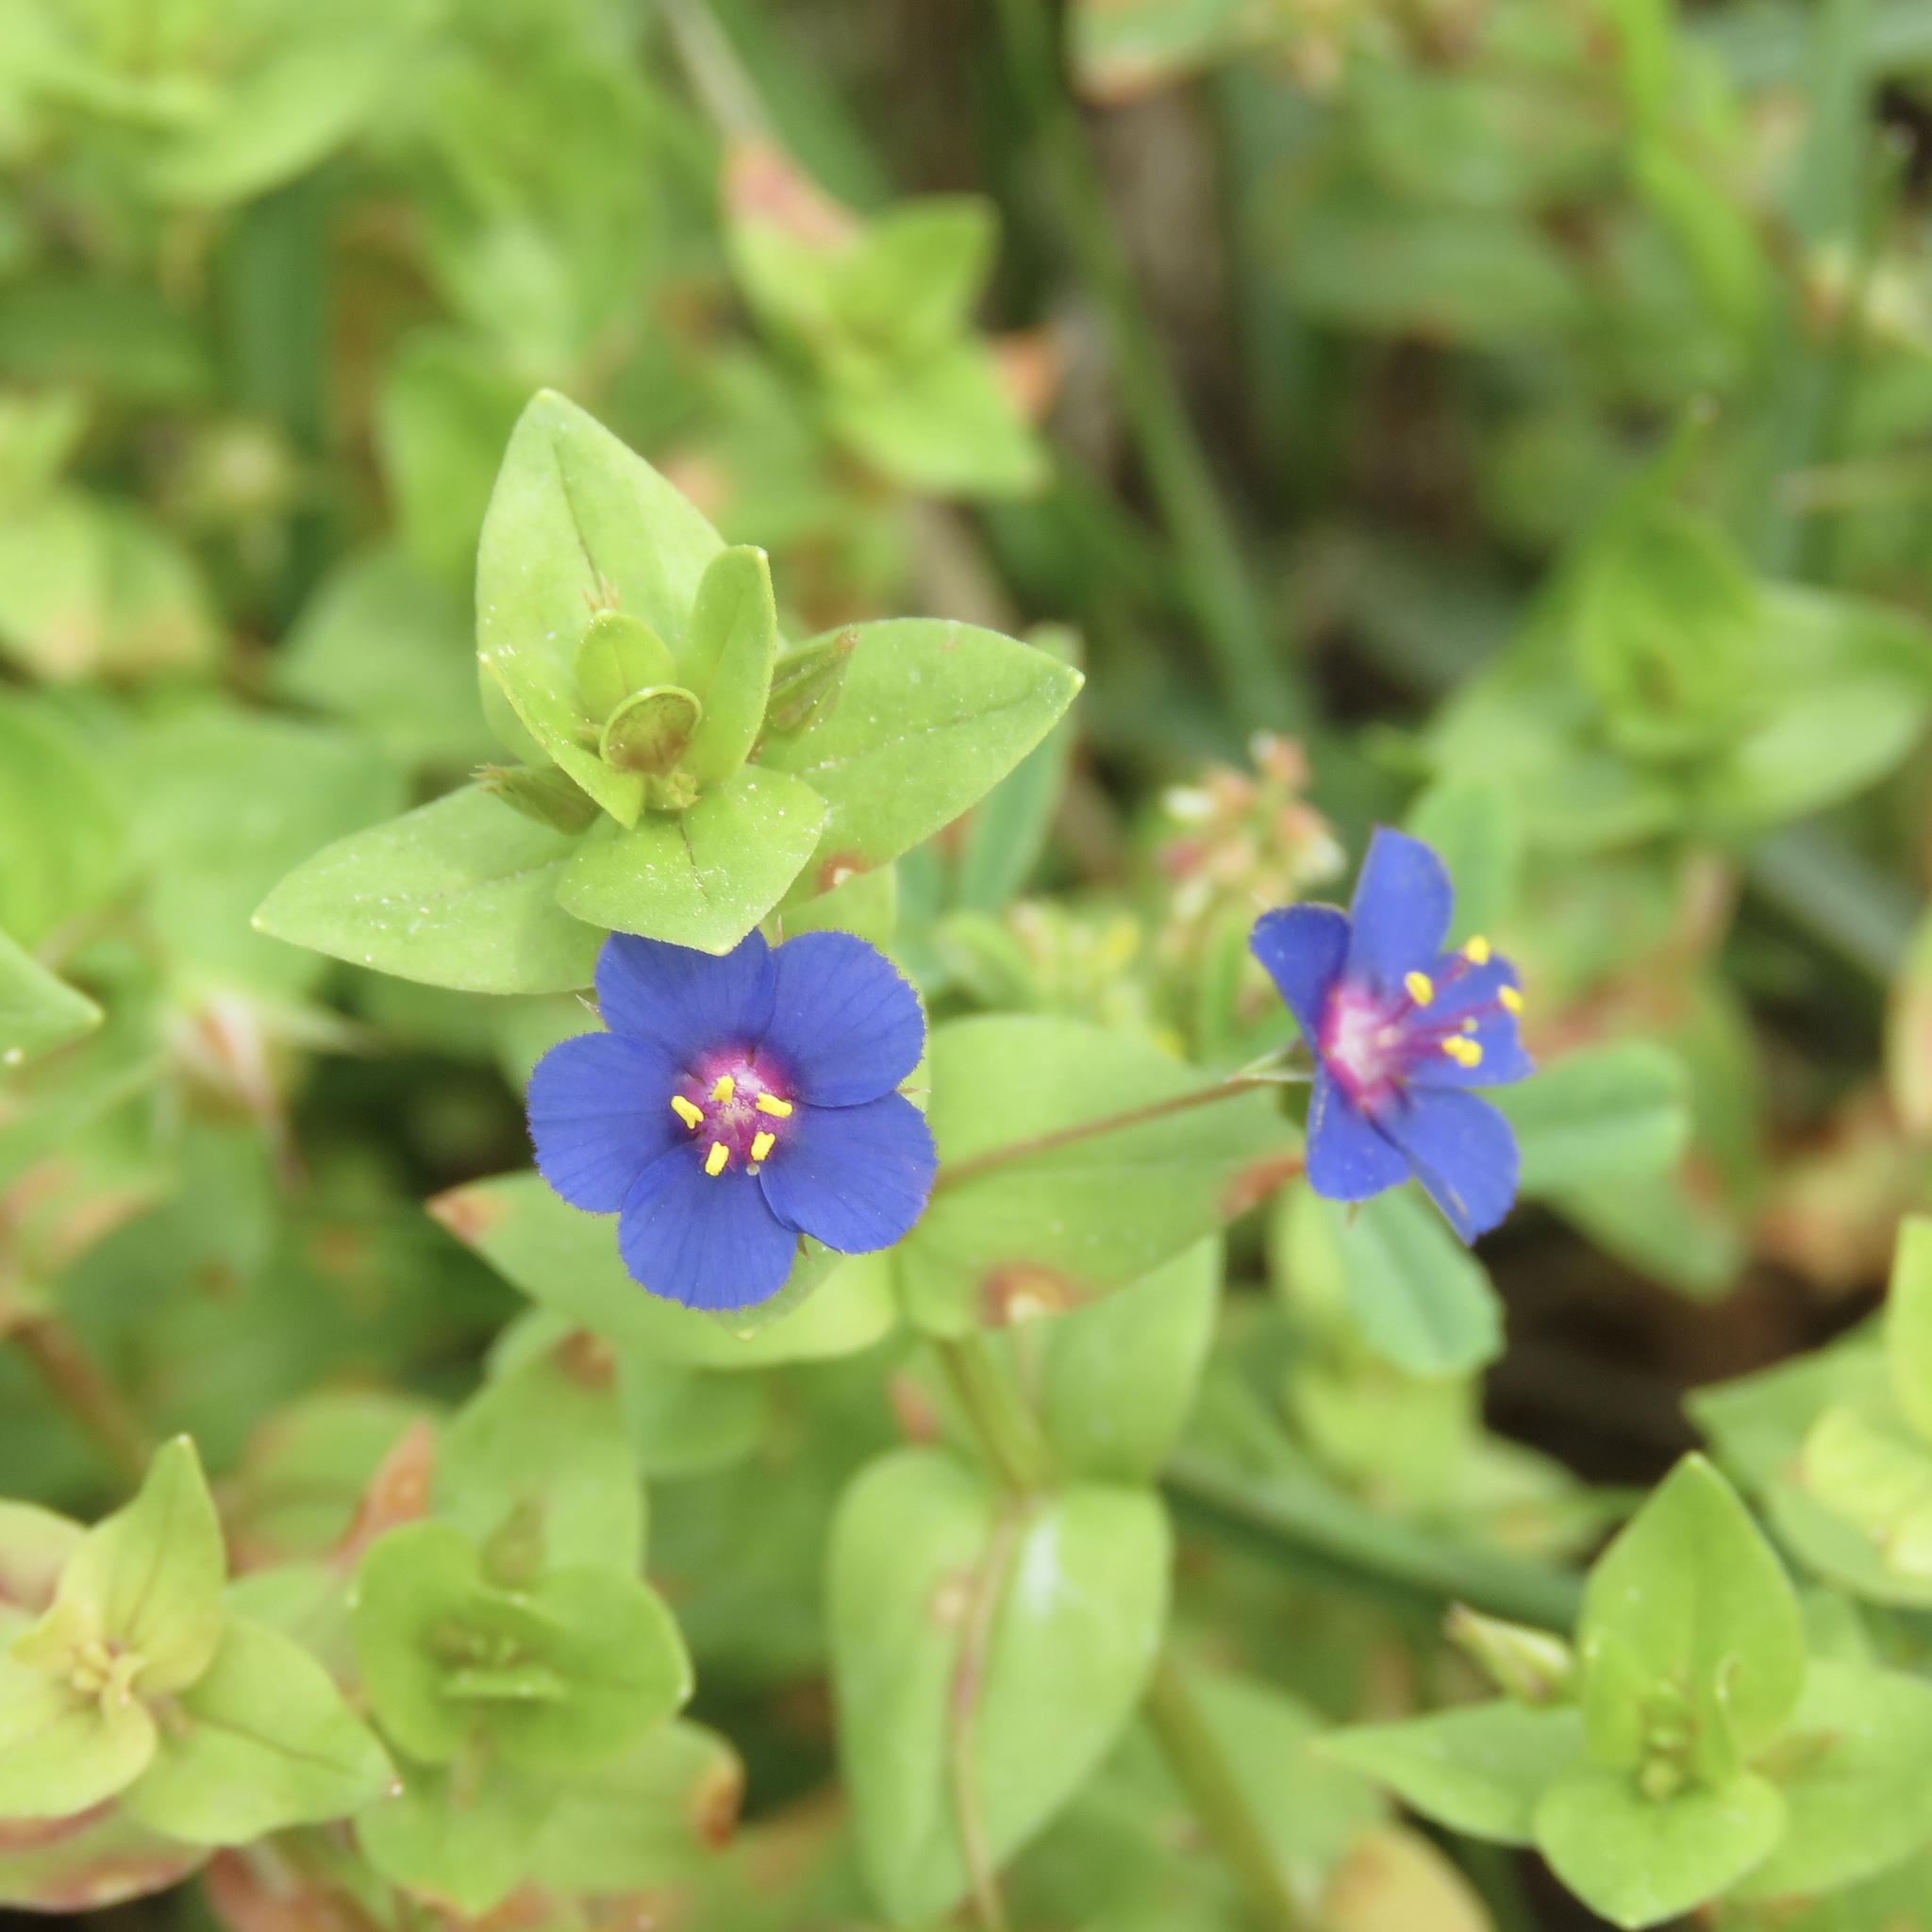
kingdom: Plantae
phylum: Tracheophyta
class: Magnoliopsida
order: Ericales
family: Primulaceae
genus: Lysimachia
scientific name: Lysimachia loeflingii
